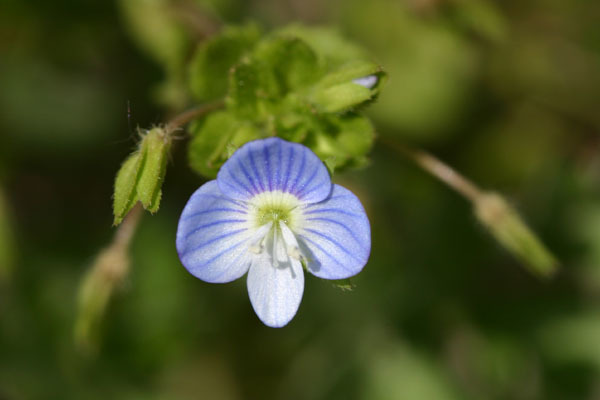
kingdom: Plantae
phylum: Tracheophyta
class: Magnoliopsida
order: Lamiales
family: Plantaginaceae
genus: Veronica
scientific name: Veronica persica
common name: Common field-speedwell
